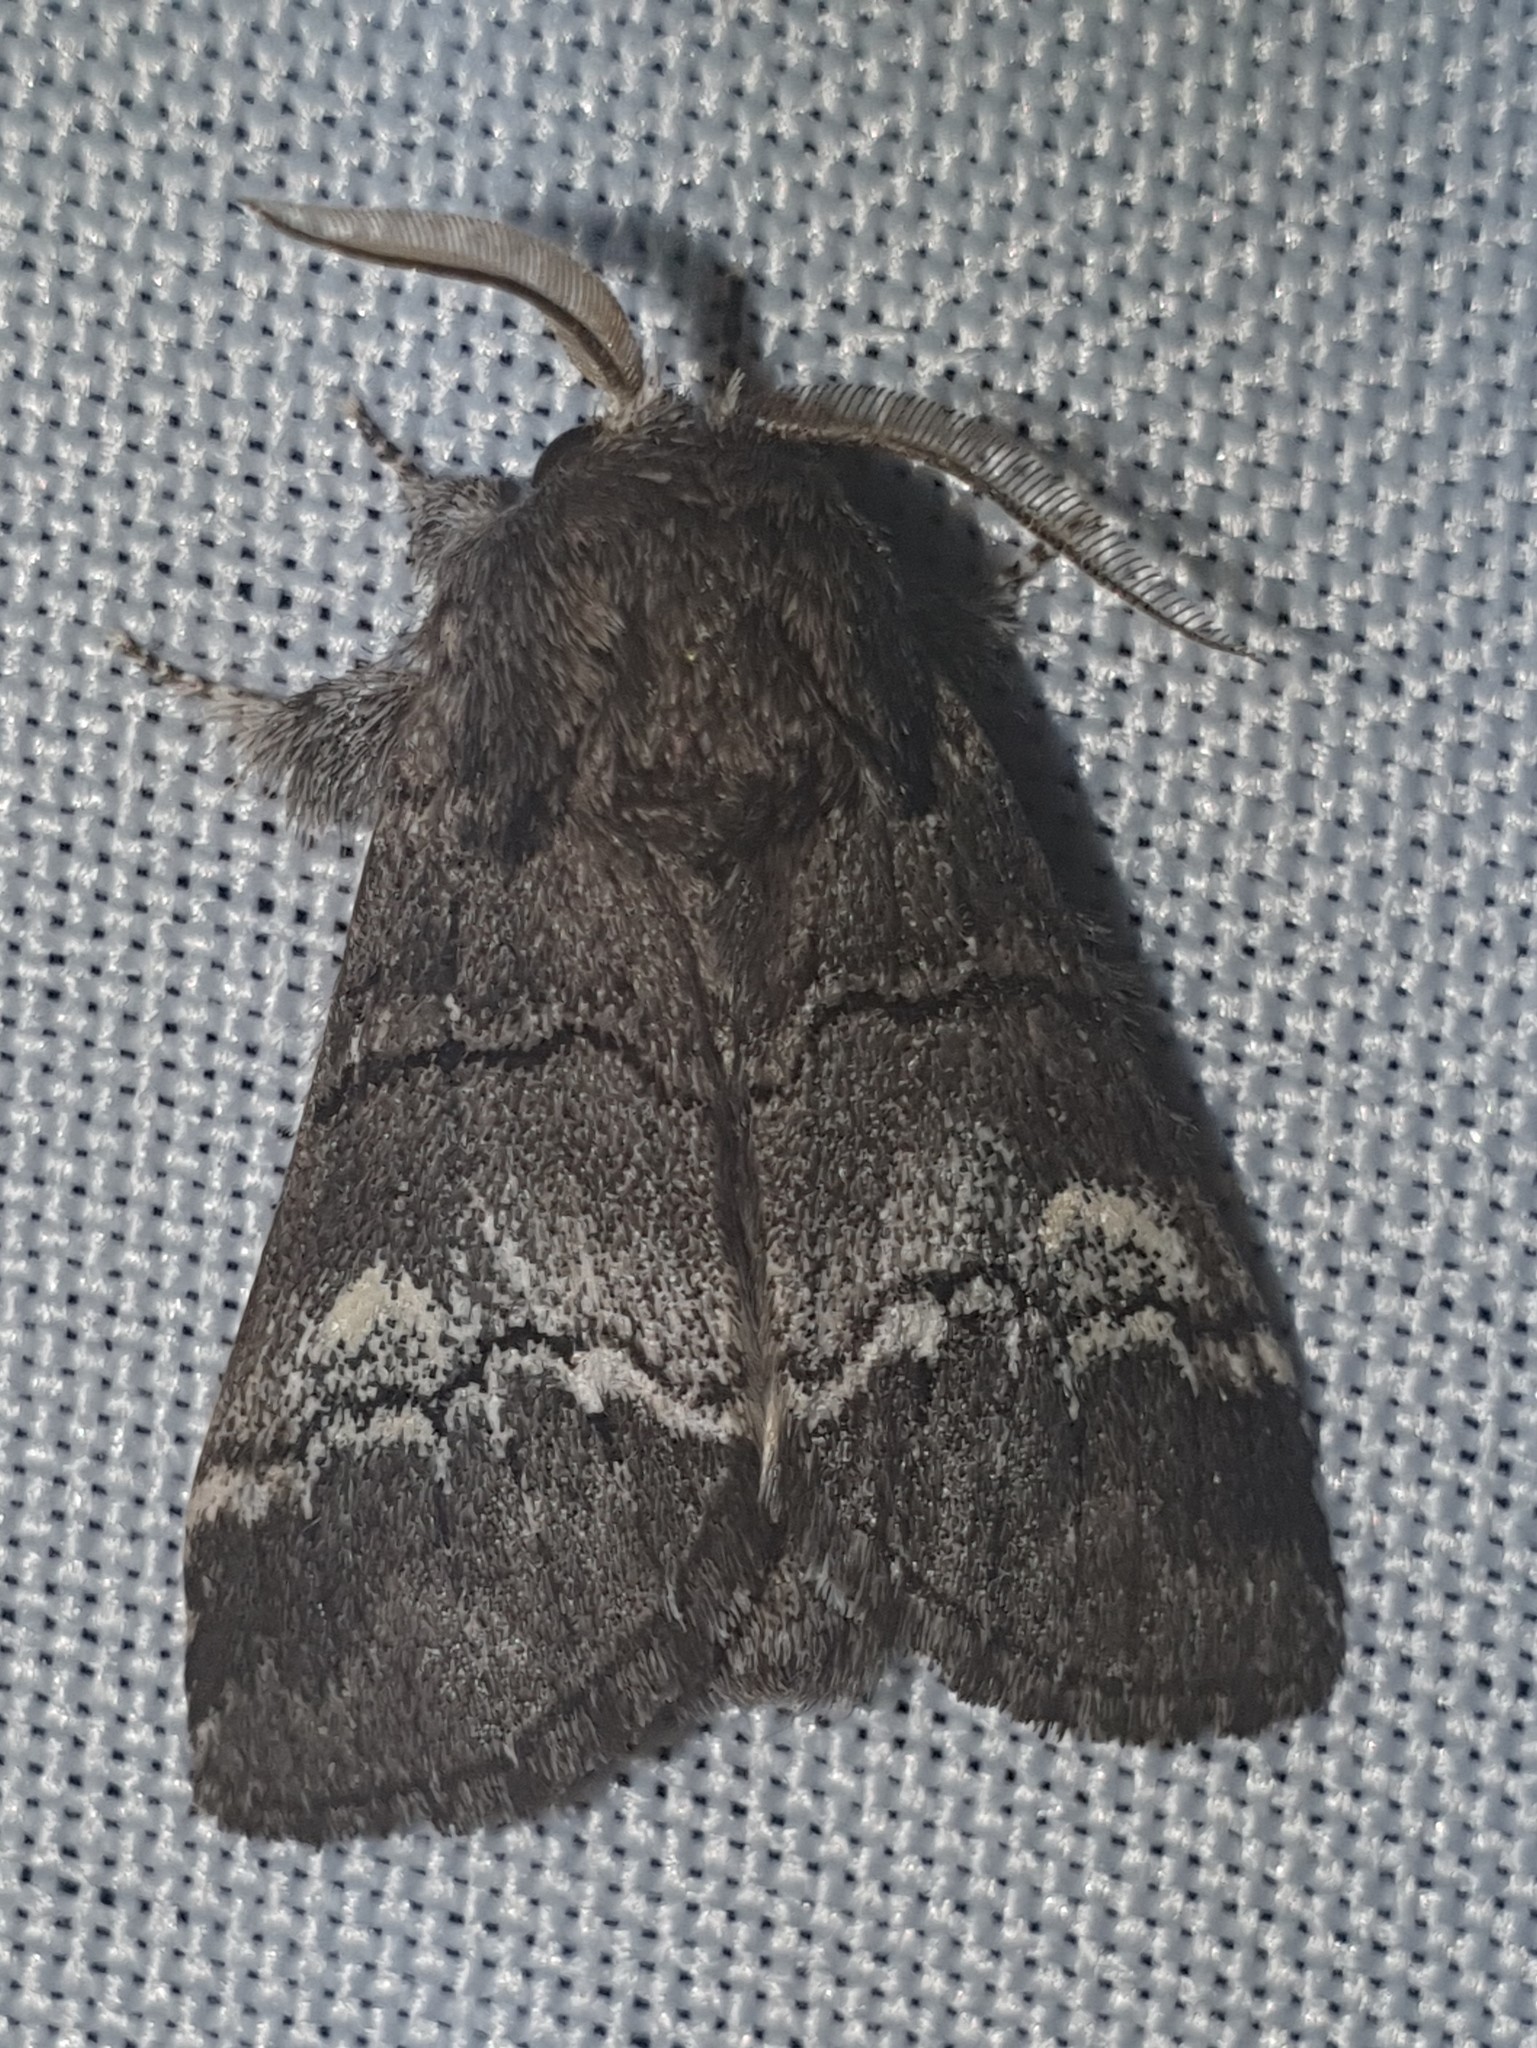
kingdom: Animalia
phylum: Arthropoda
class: Insecta
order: Lepidoptera
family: Notodontidae
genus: Drymonia
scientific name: Drymonia querna
